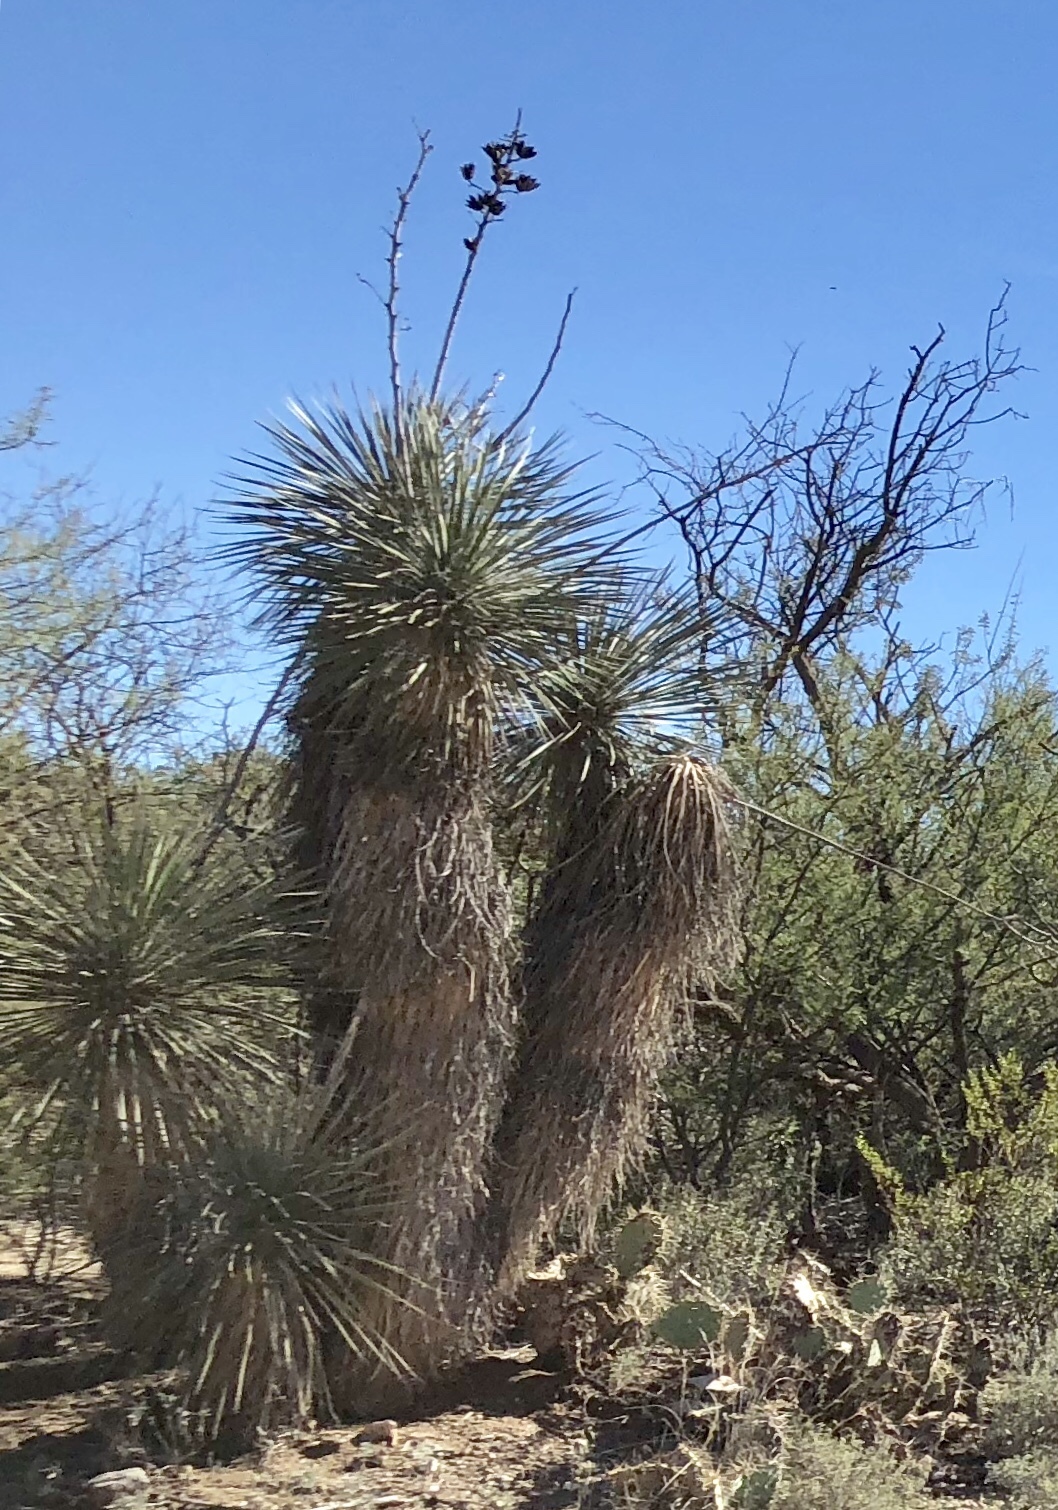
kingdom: Plantae
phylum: Tracheophyta
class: Liliopsida
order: Asparagales
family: Asparagaceae
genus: Yucca
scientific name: Yucca elata
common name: Palmella
